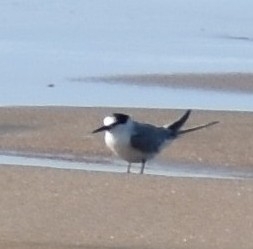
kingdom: Animalia
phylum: Chordata
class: Aves
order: Charadriiformes
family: Laridae
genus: Sterna
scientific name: Sterna hirundo
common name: Common tern
